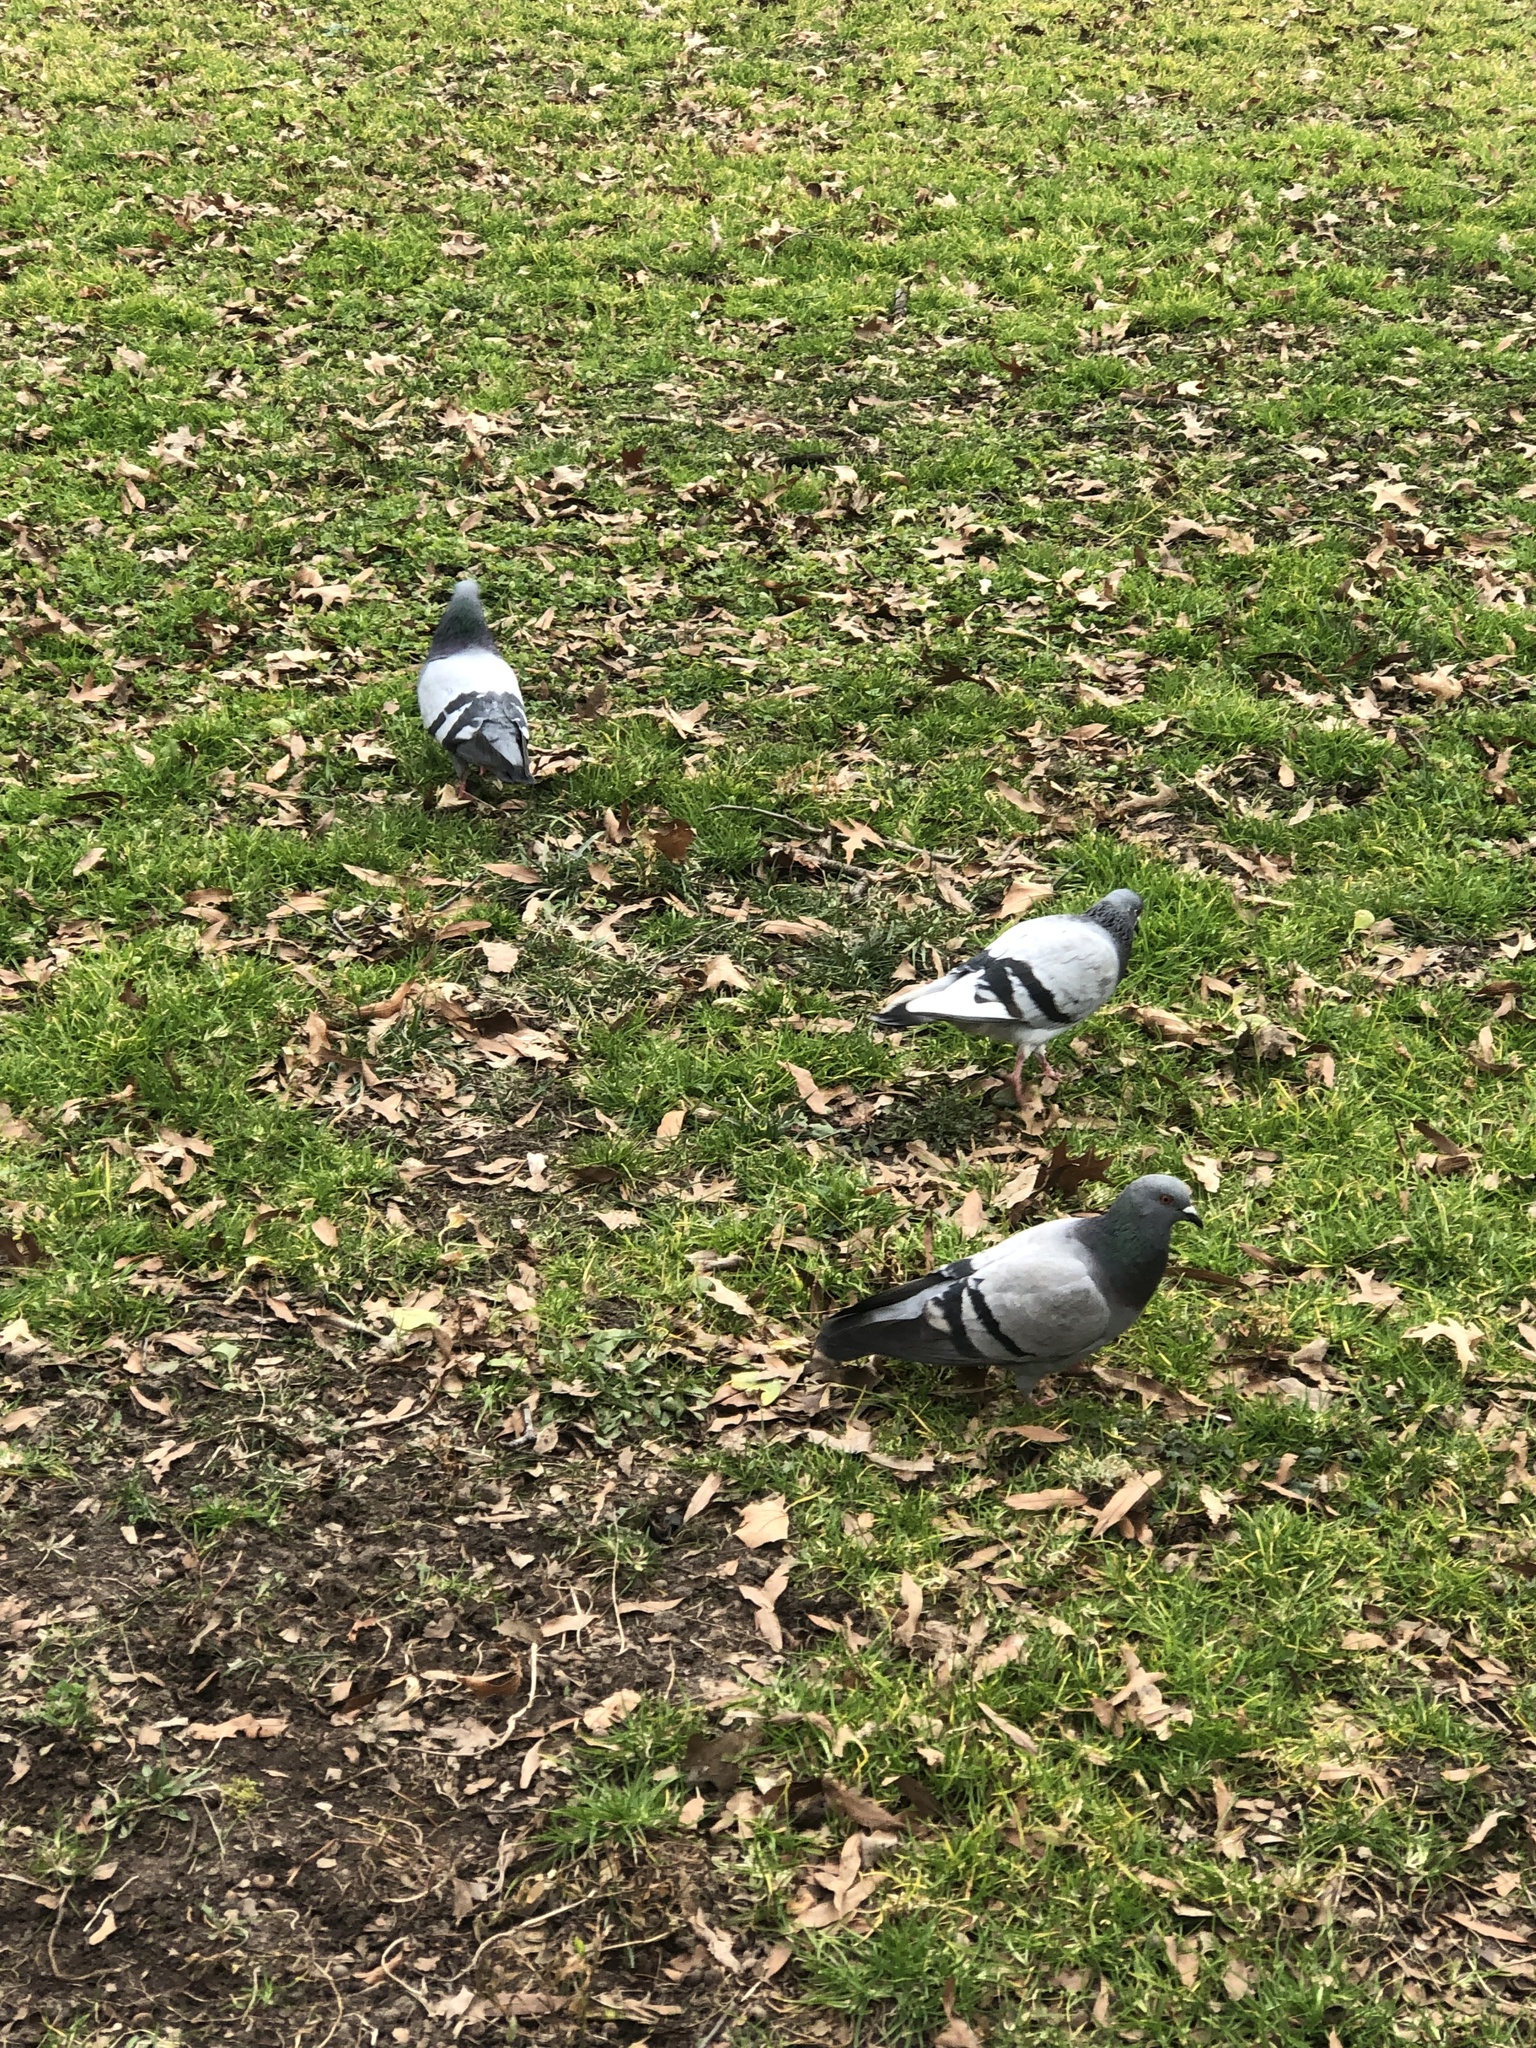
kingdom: Animalia
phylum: Chordata
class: Aves
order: Columbiformes
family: Columbidae
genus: Columba
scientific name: Columba livia
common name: Rock pigeon
